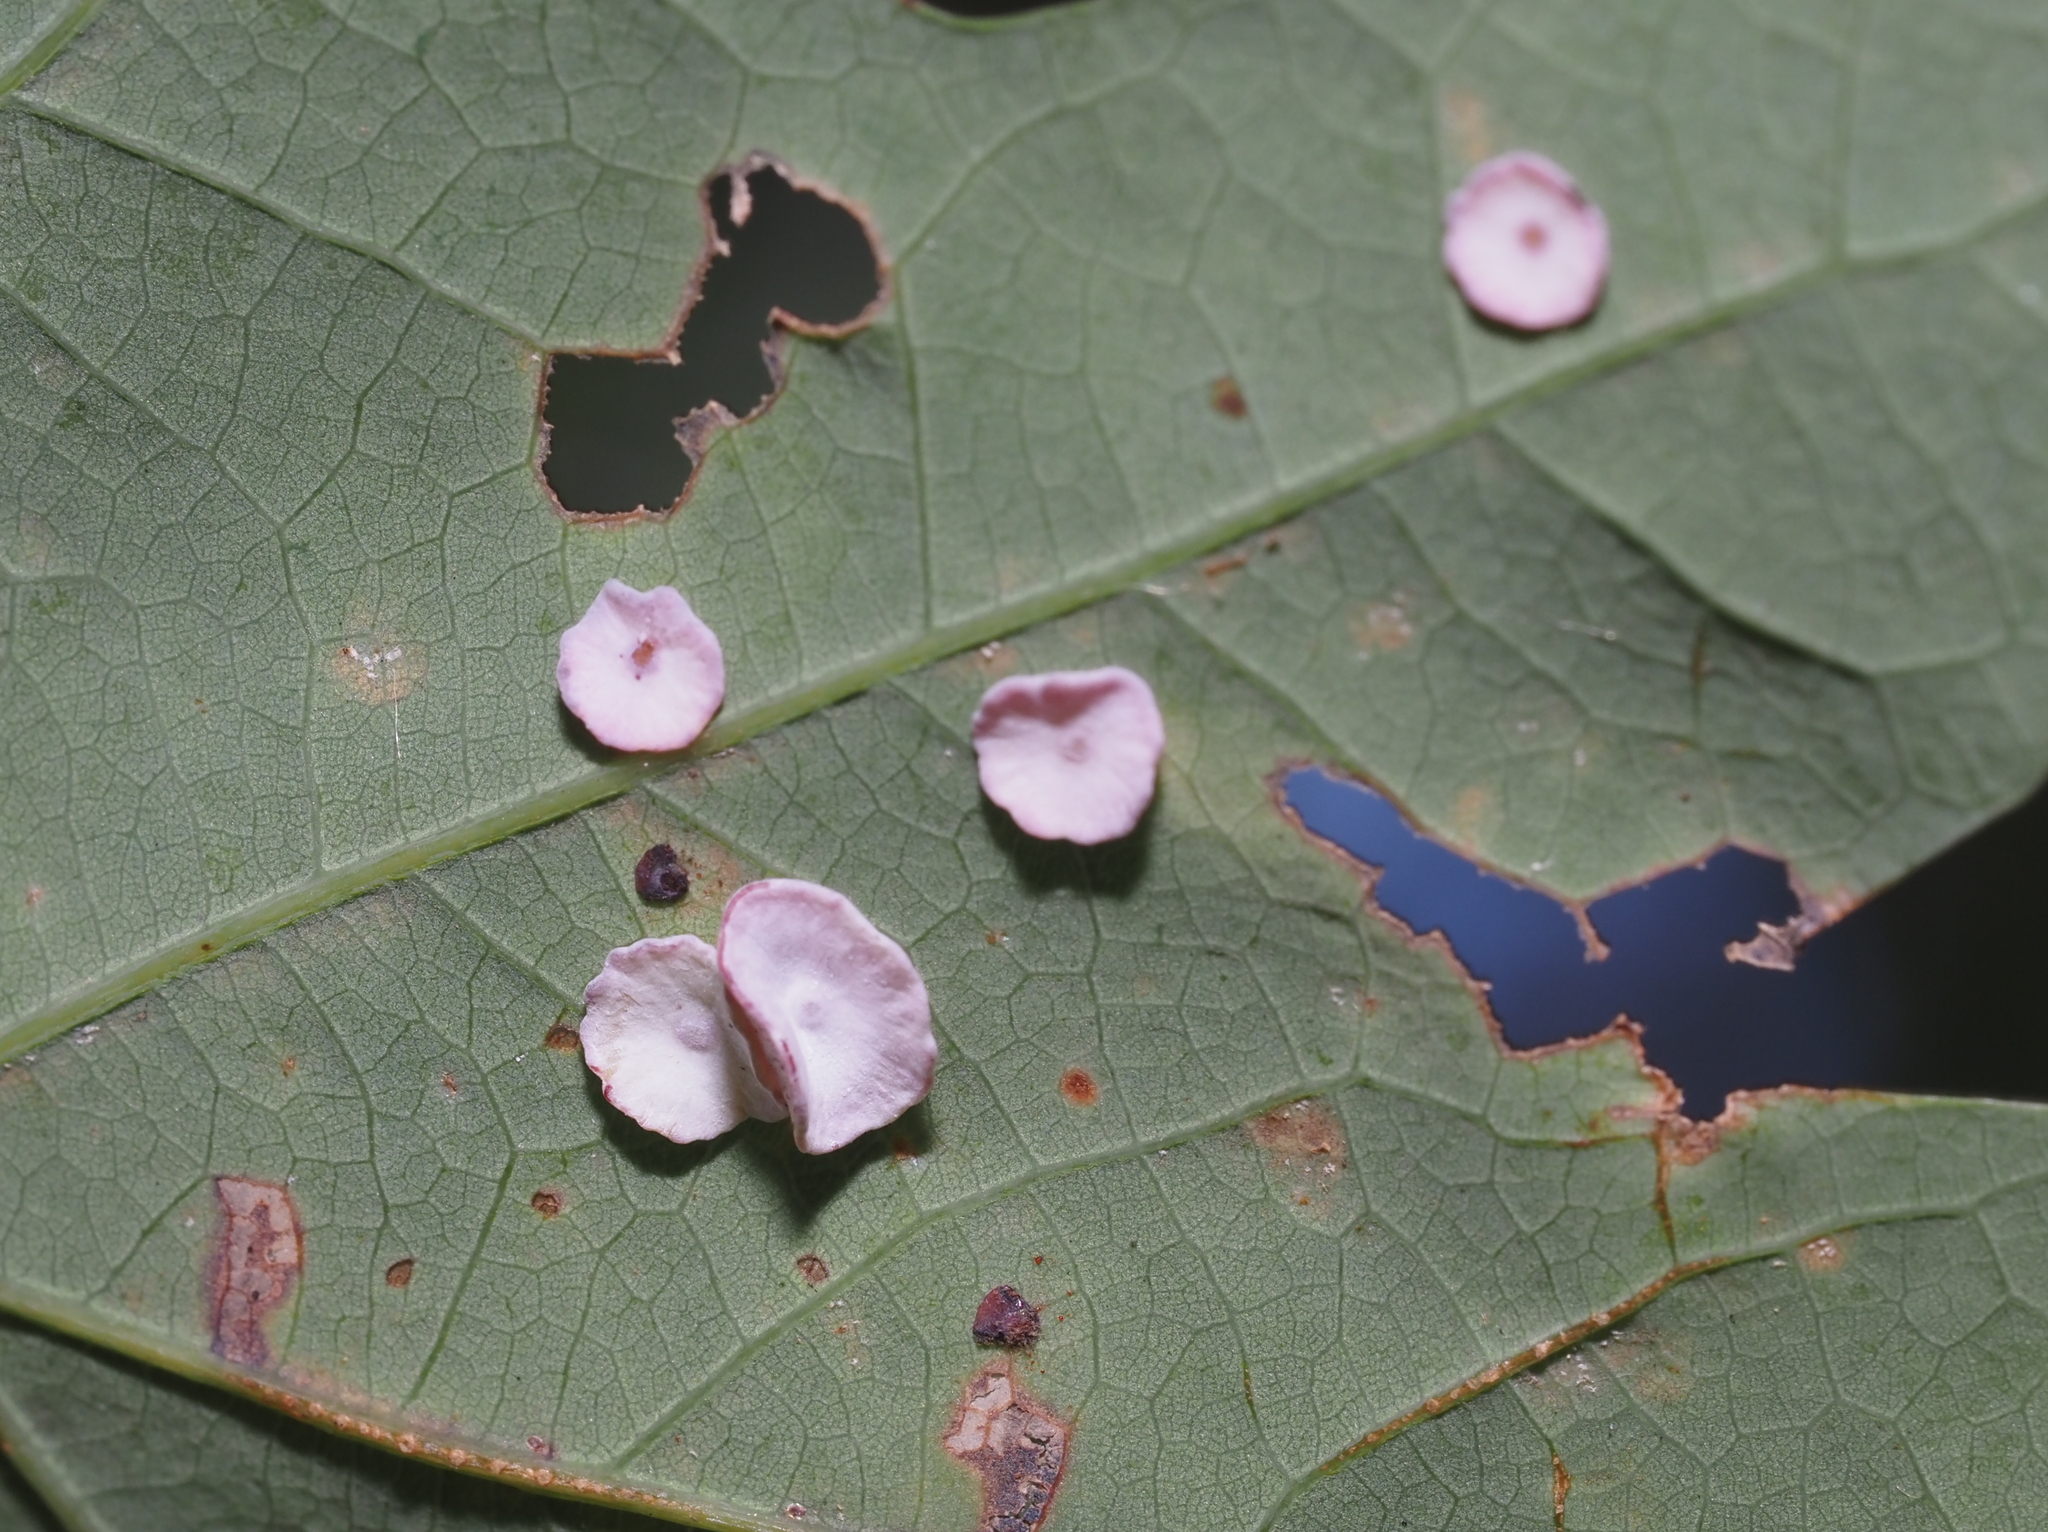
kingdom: Animalia
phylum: Arthropoda
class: Insecta
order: Hymenoptera
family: Cynipidae
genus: Phylloteras
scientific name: Phylloteras poculum
